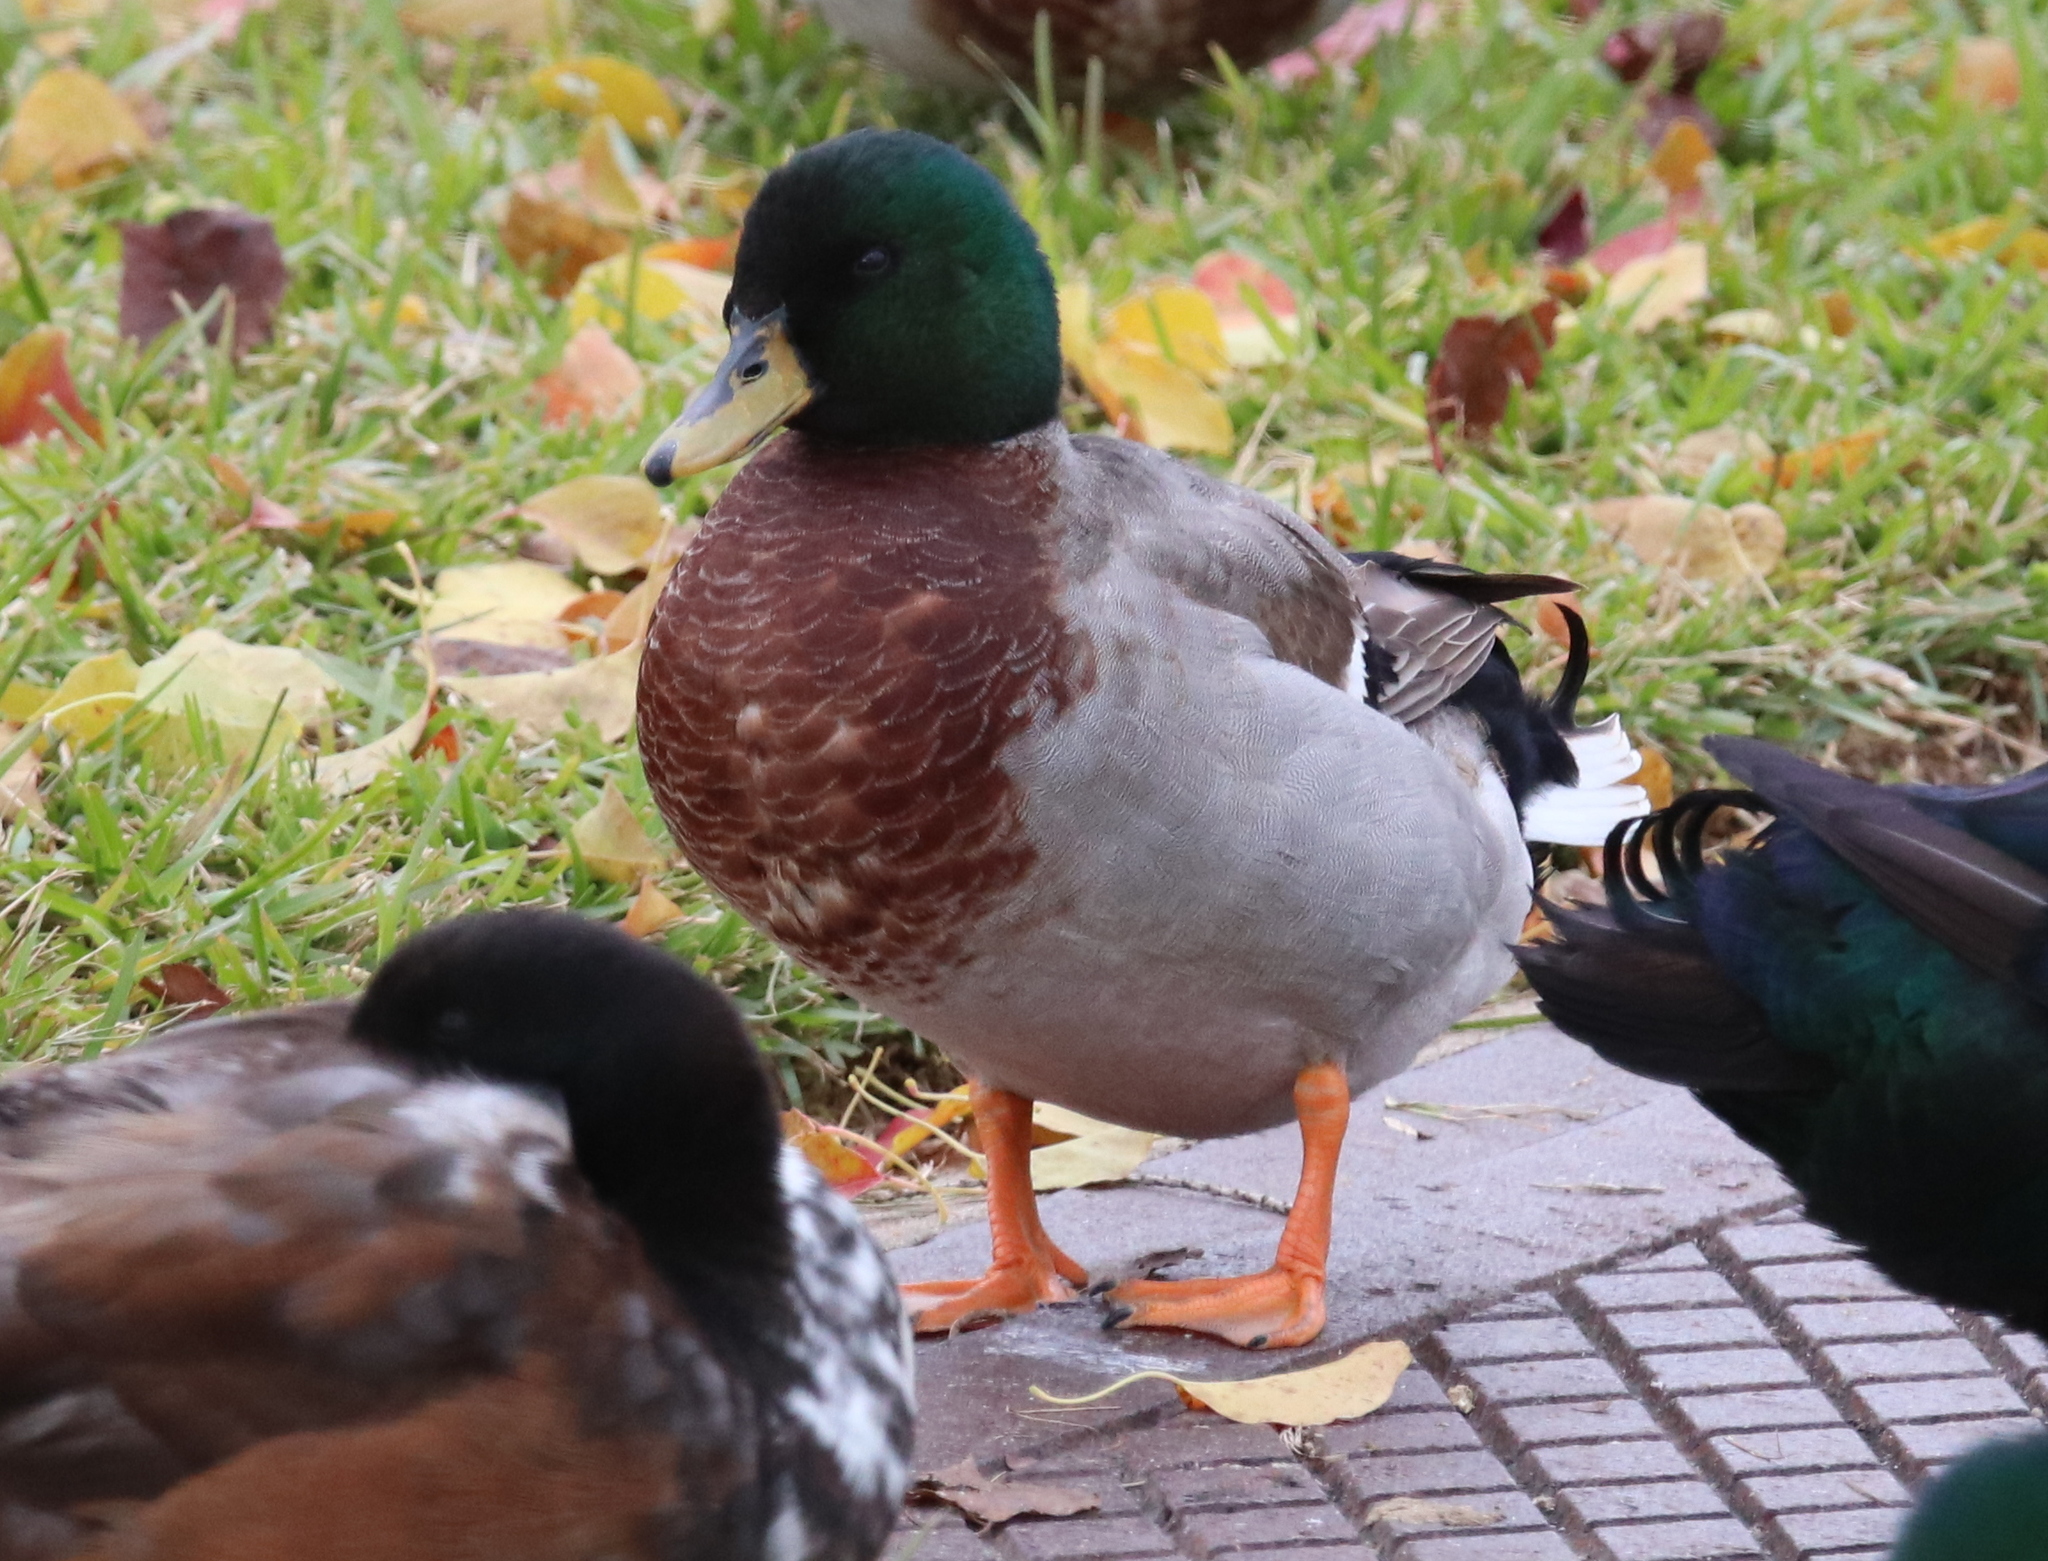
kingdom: Animalia
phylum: Chordata
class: Aves
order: Anseriformes
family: Anatidae
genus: Anas
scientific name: Anas platyrhynchos
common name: Mallard
